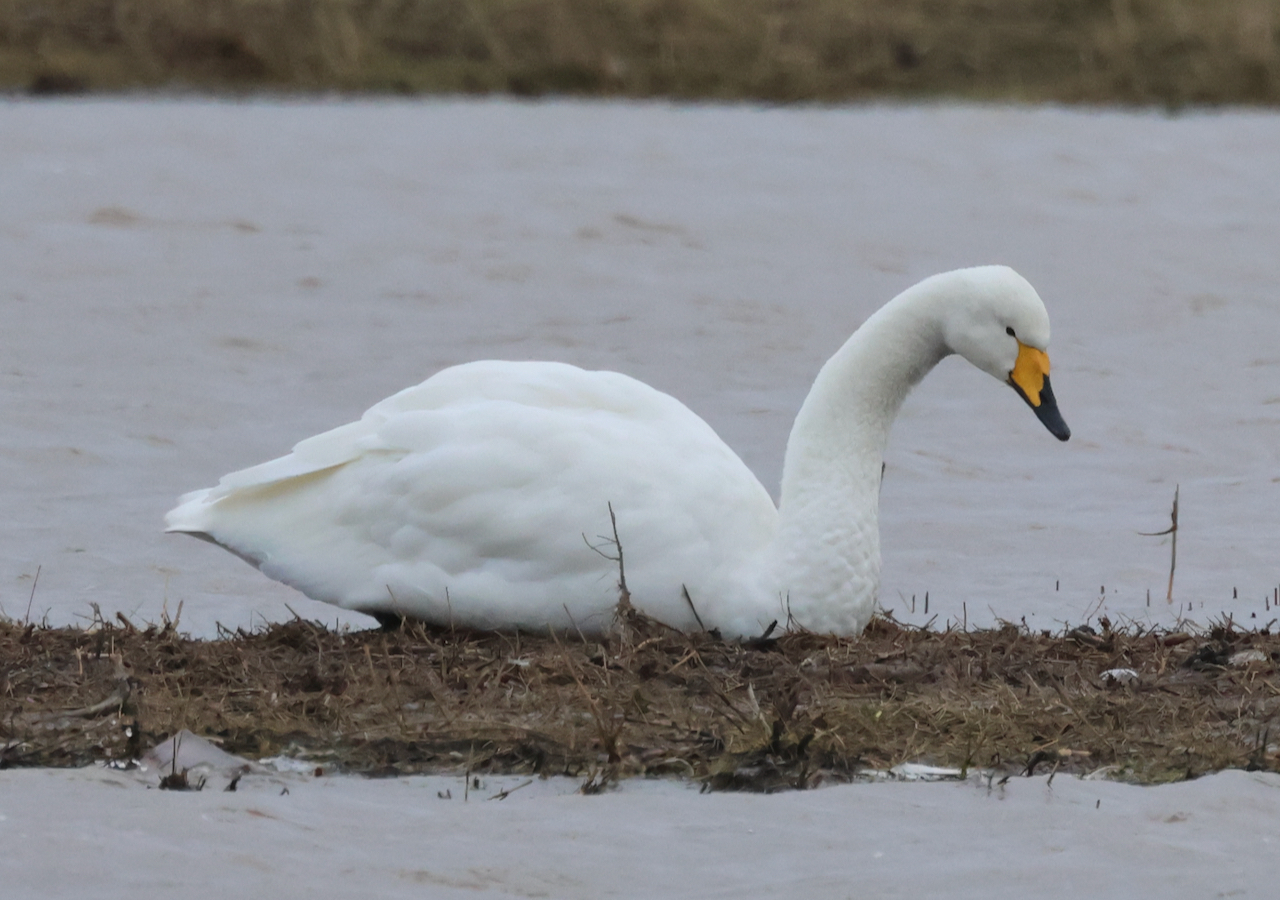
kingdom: Animalia
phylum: Chordata
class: Aves
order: Anseriformes
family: Anatidae
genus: Cygnus
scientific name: Cygnus cygnus
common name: Whooper swan
